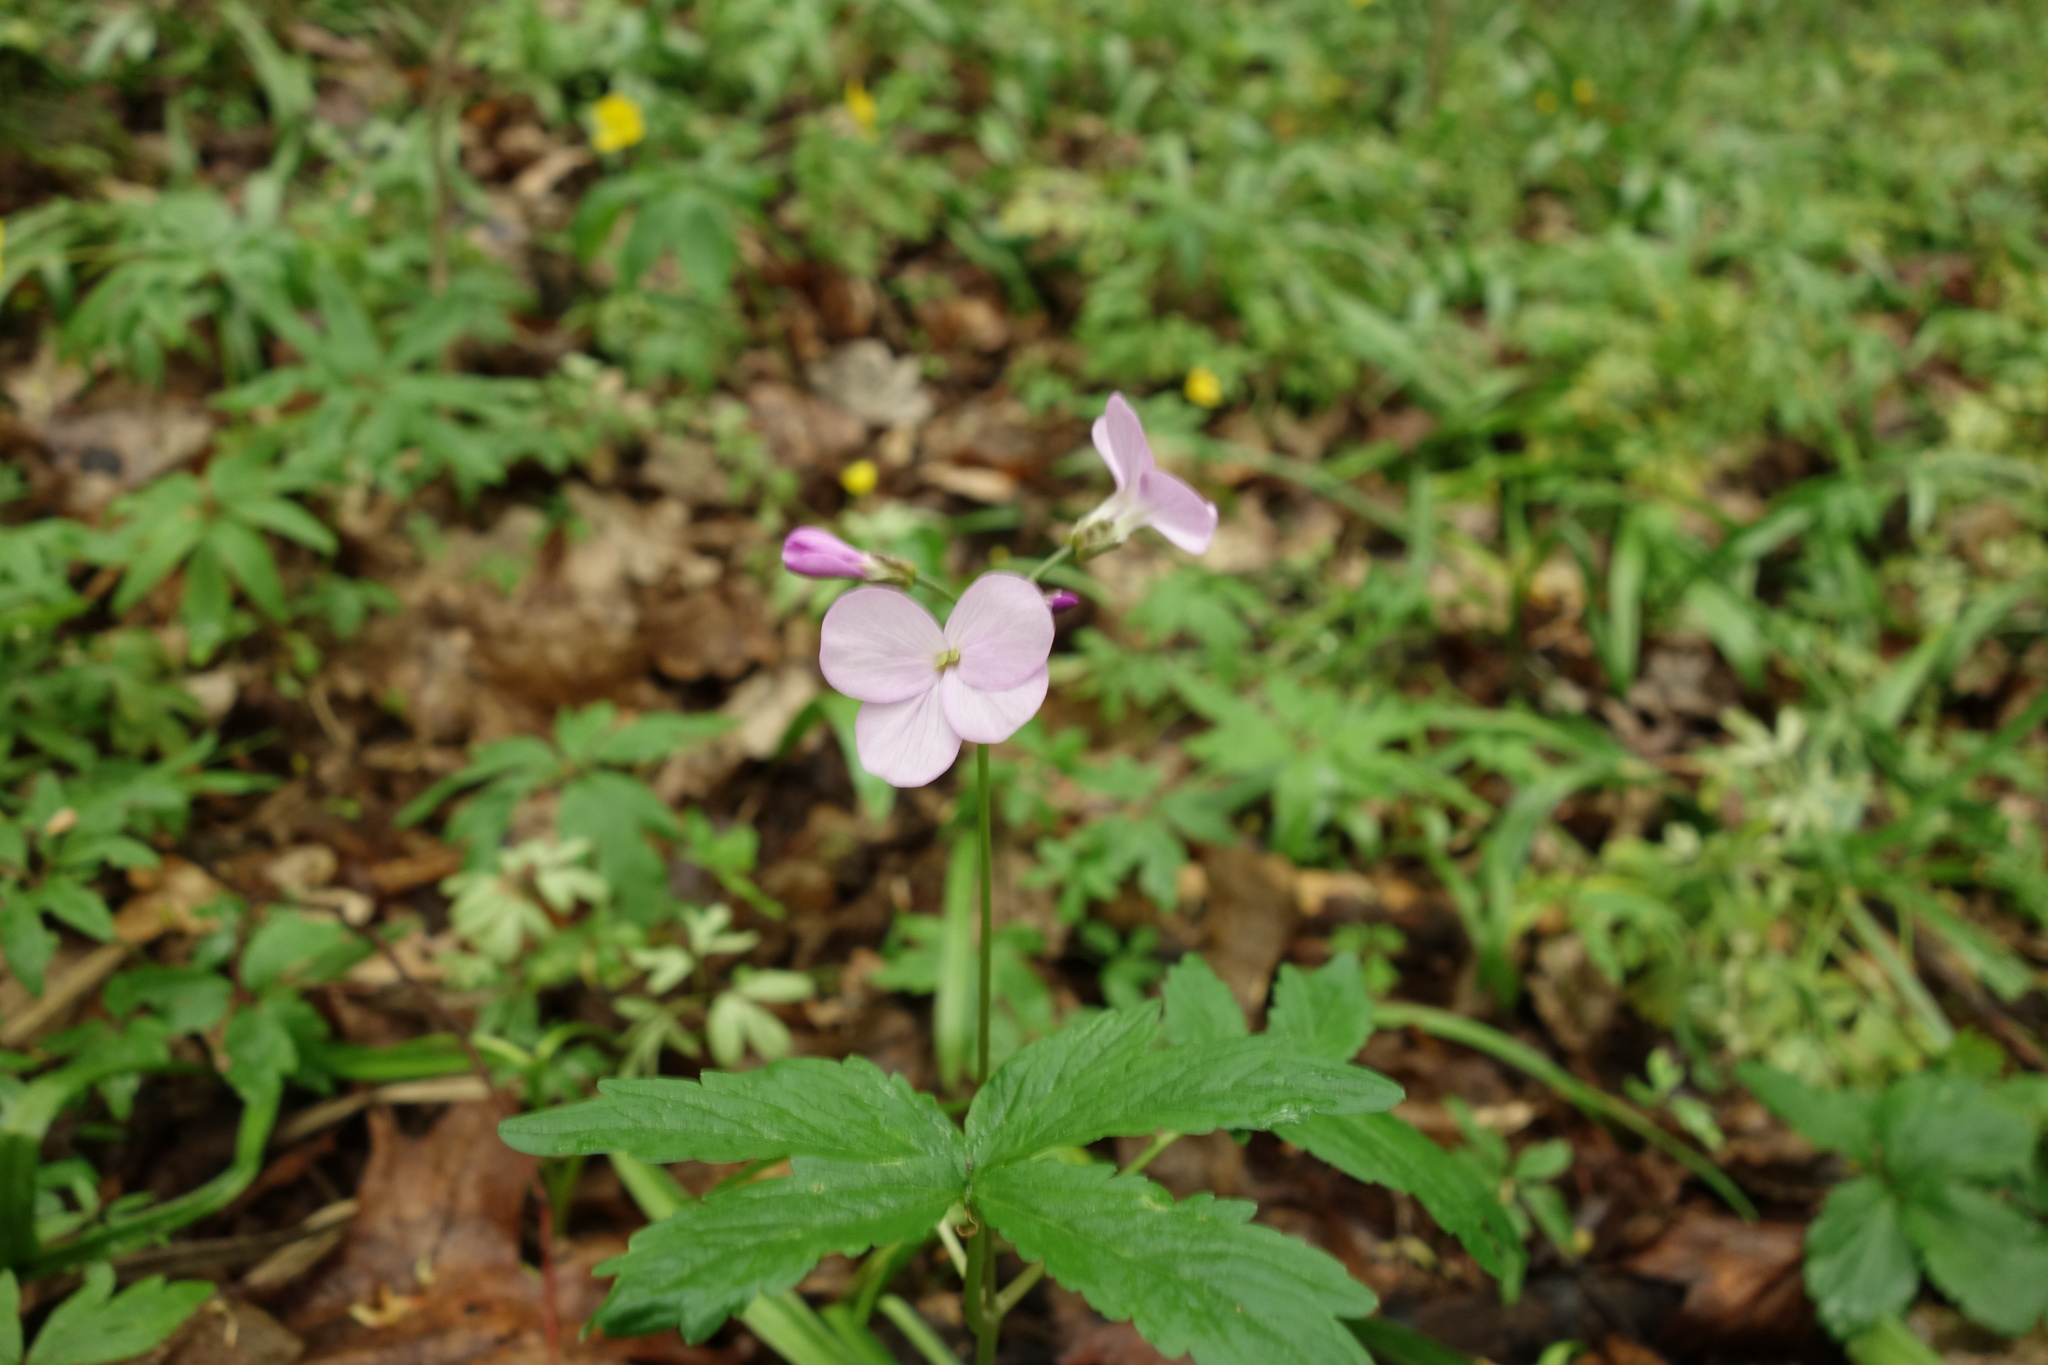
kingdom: Plantae
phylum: Tracheophyta
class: Magnoliopsida
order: Brassicales
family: Brassicaceae
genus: Cardamine
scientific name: Cardamine quinquefolia
